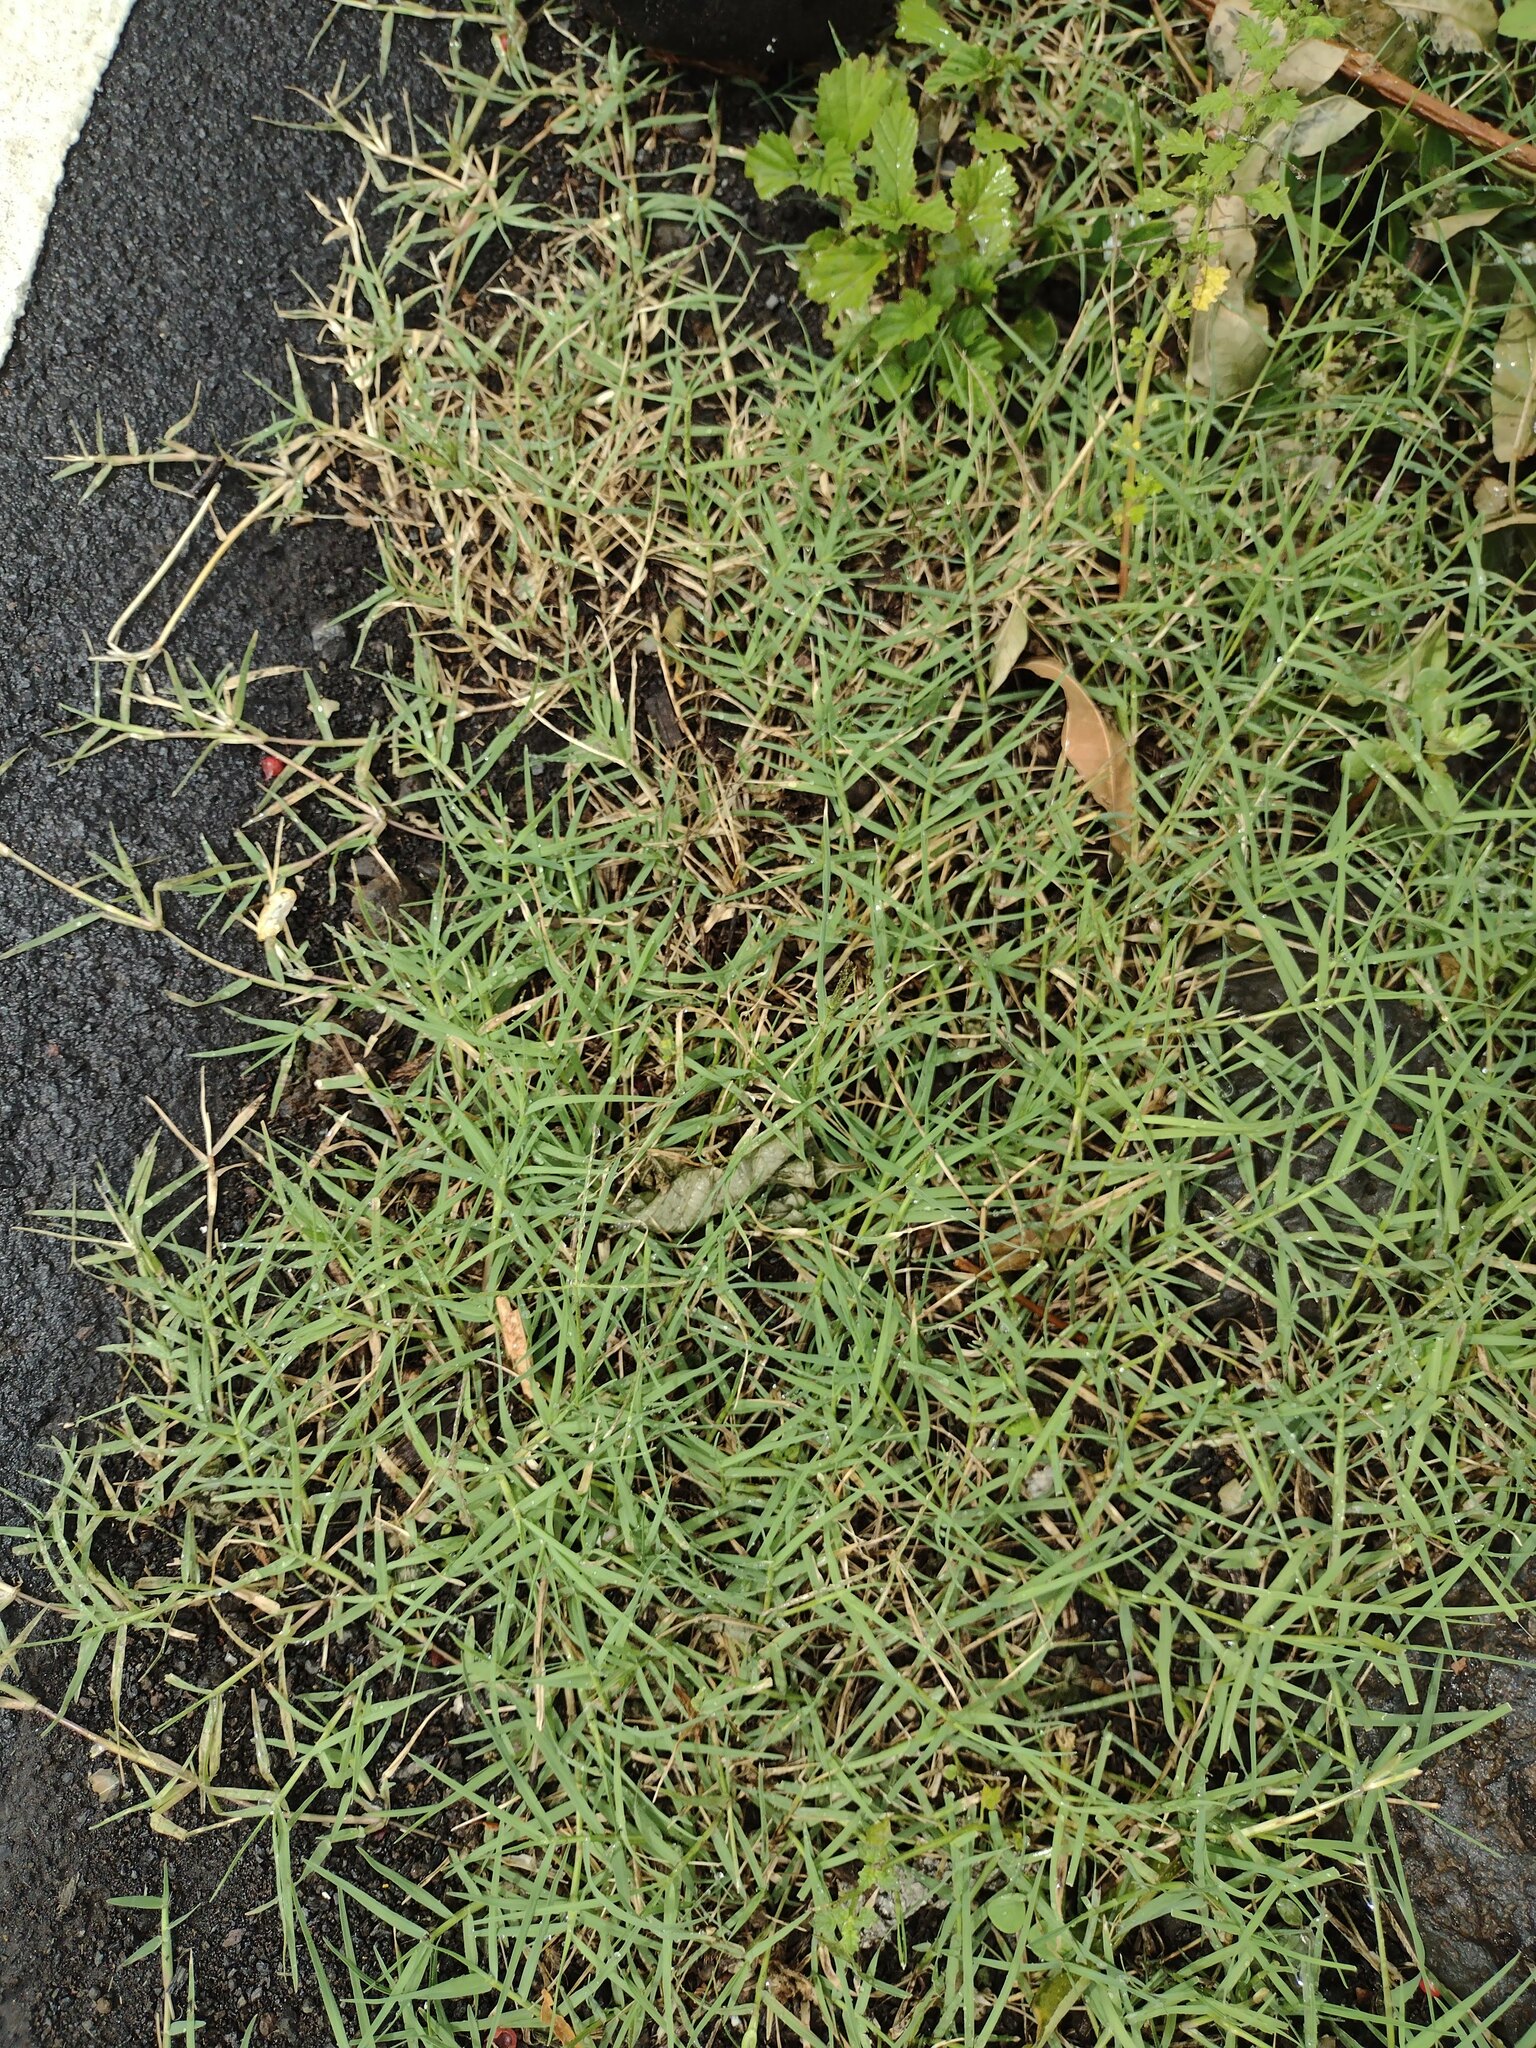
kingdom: Plantae
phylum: Tracheophyta
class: Liliopsida
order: Poales
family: Poaceae
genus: Cynodon
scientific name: Cynodon dactylon
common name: Bermuda grass
